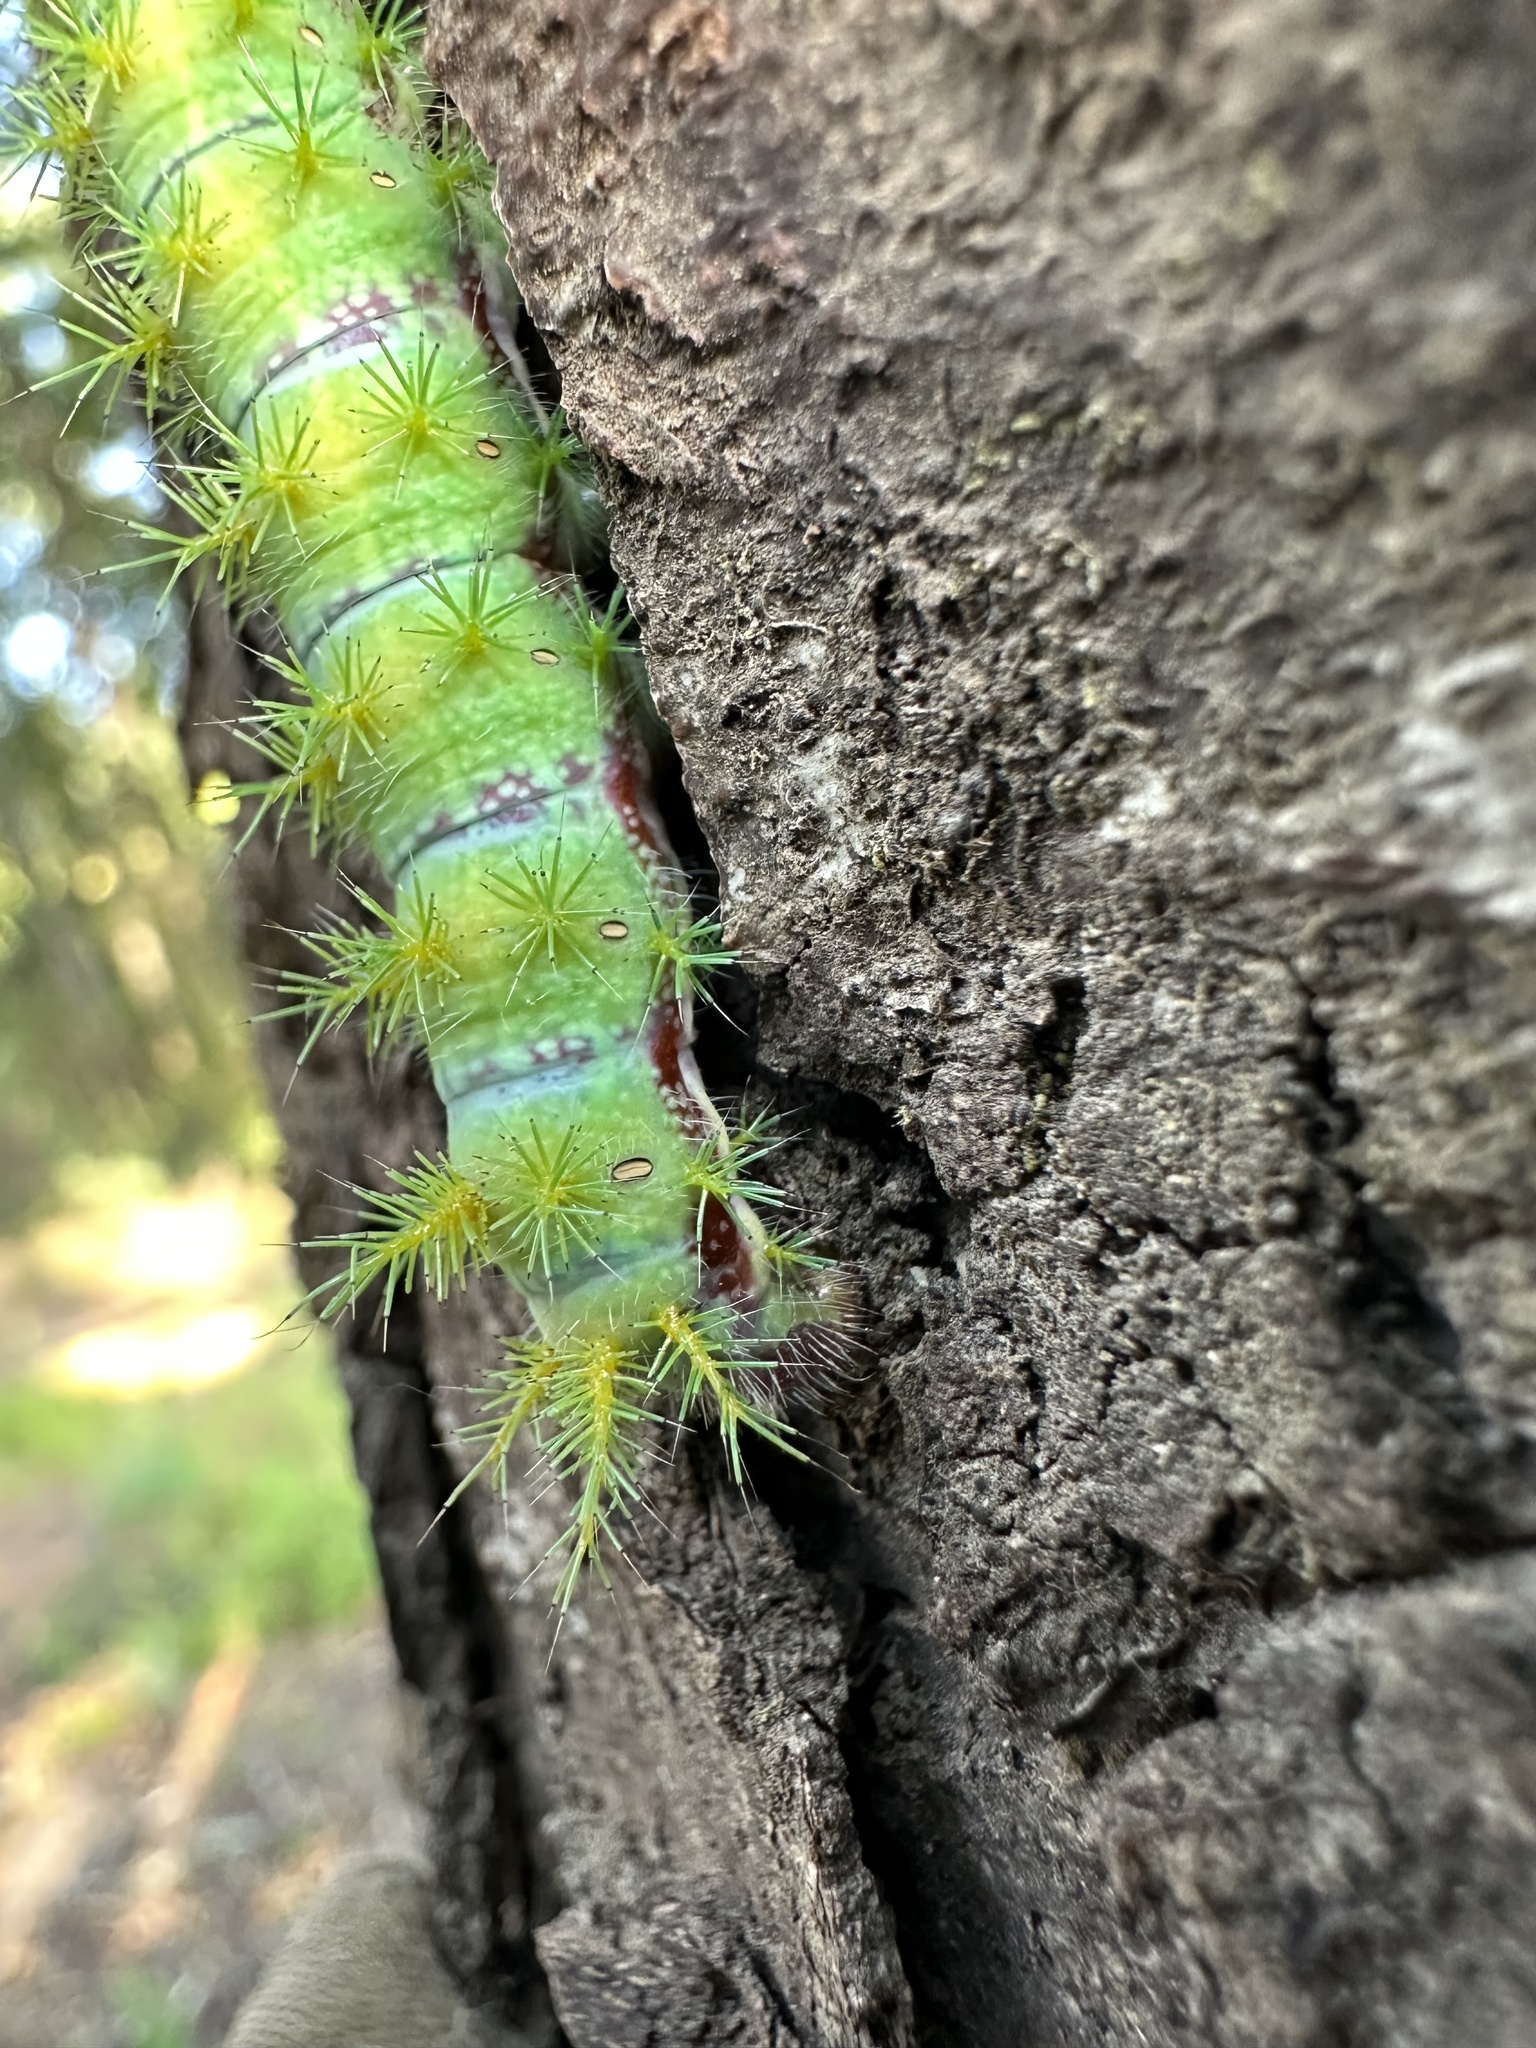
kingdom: Animalia
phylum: Arthropoda
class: Insecta
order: Lepidoptera
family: Saturniidae
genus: Adetomeris
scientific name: Adetomeris erythrops
